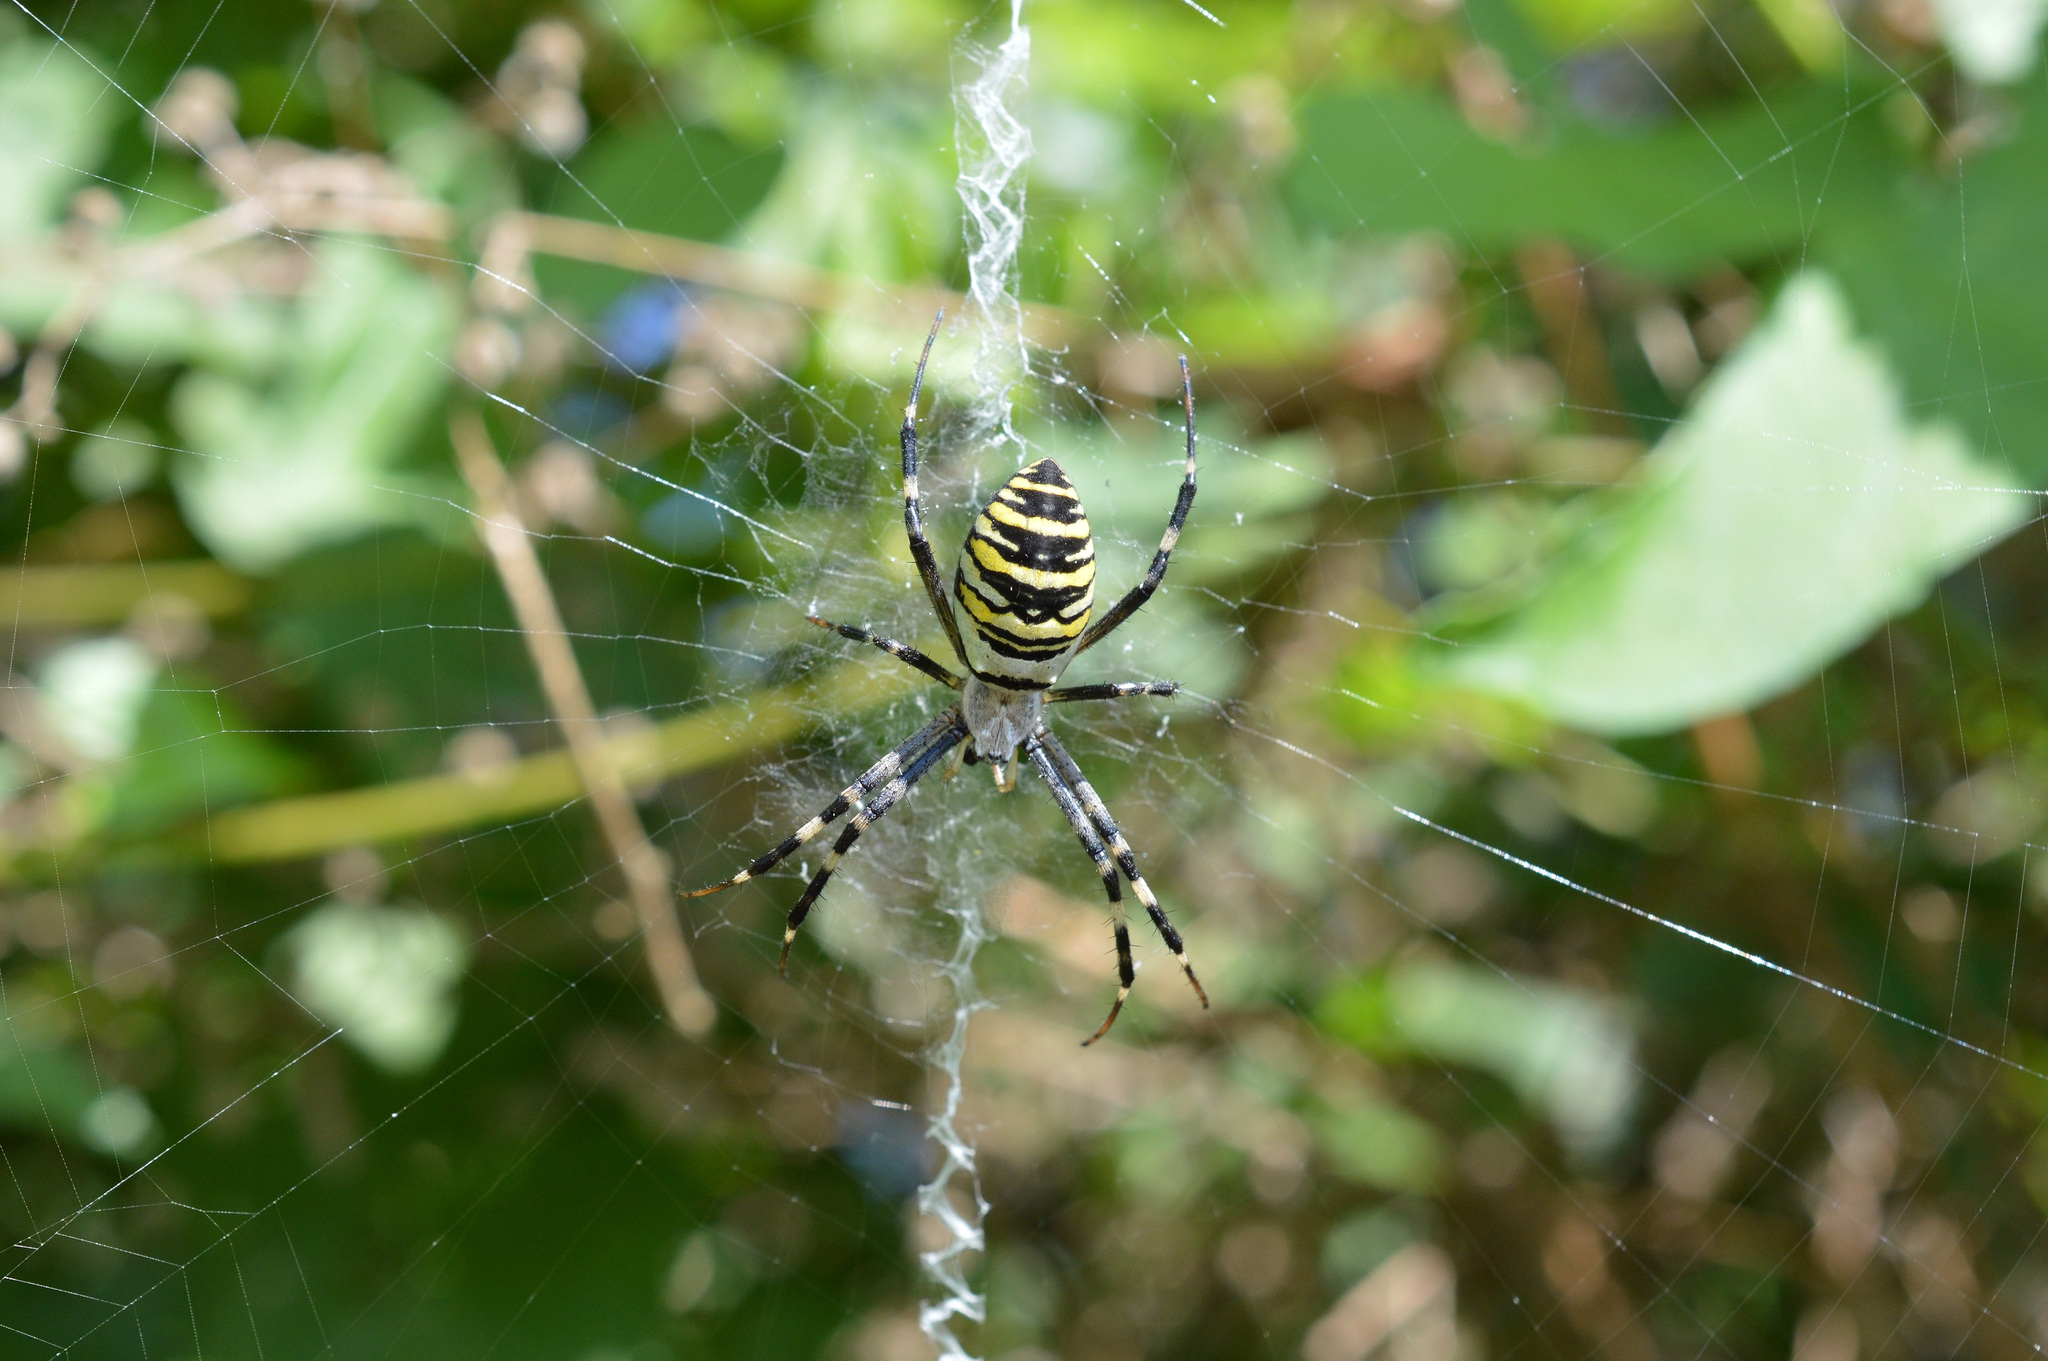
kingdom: Animalia
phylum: Arthropoda
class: Arachnida
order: Araneae
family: Araneidae
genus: Argiope
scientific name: Argiope bruennichi
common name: Wasp spider
